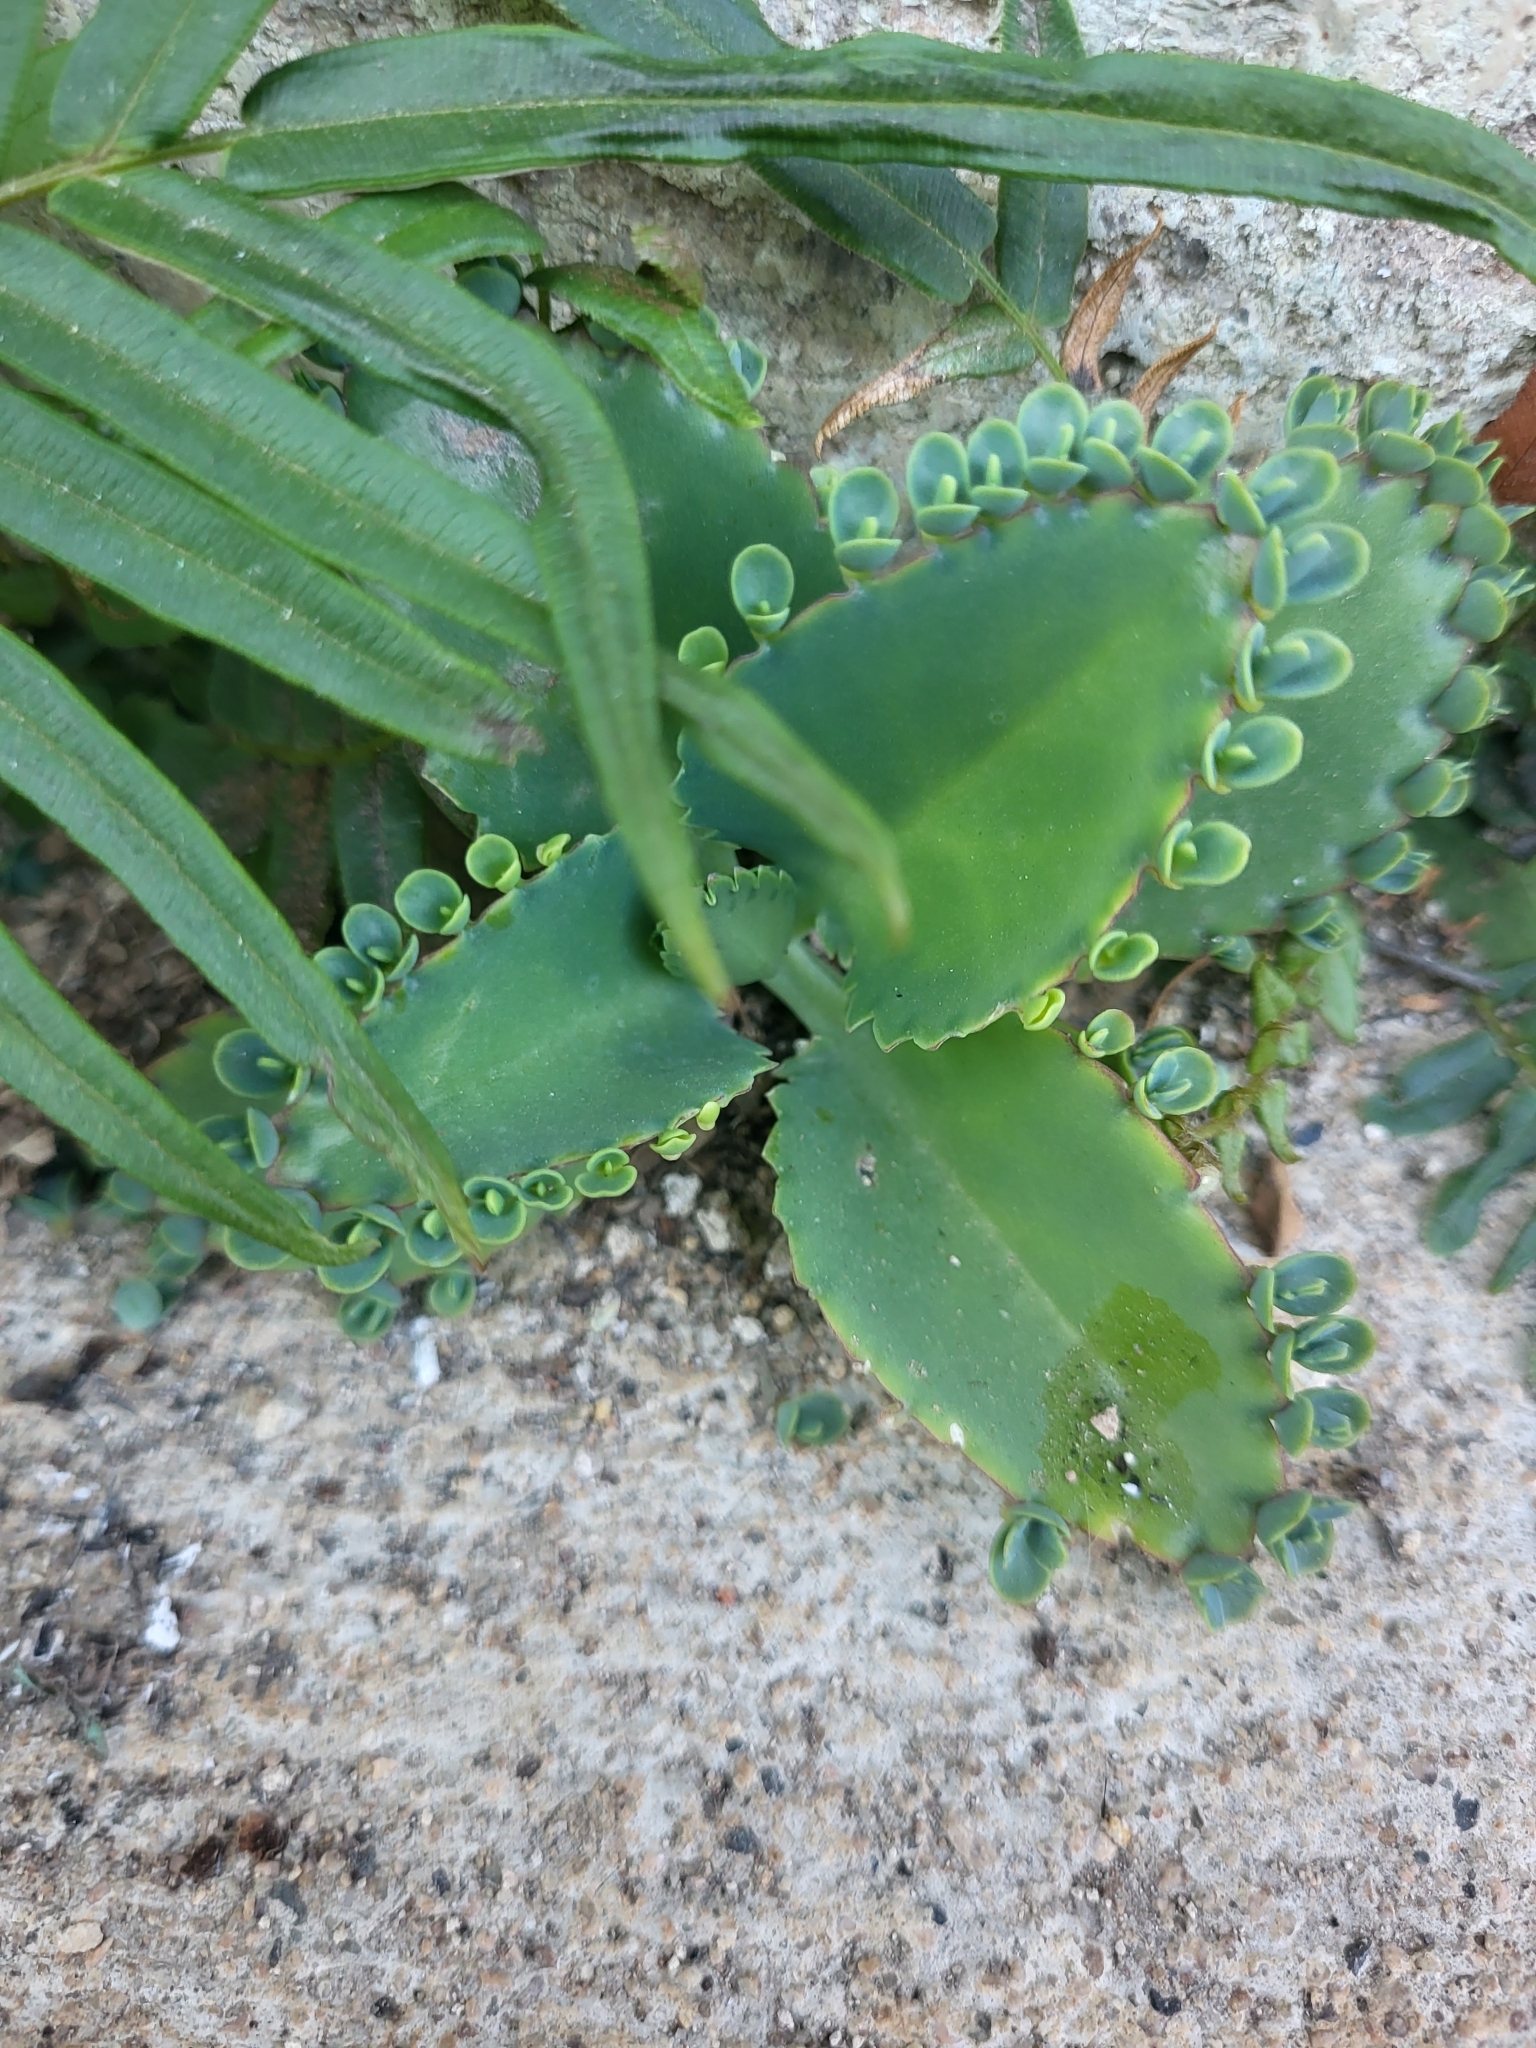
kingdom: Plantae
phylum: Tracheophyta
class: Magnoliopsida
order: Saxifragales
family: Crassulaceae
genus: Kalanchoe
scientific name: Kalanchoe laetivirens
